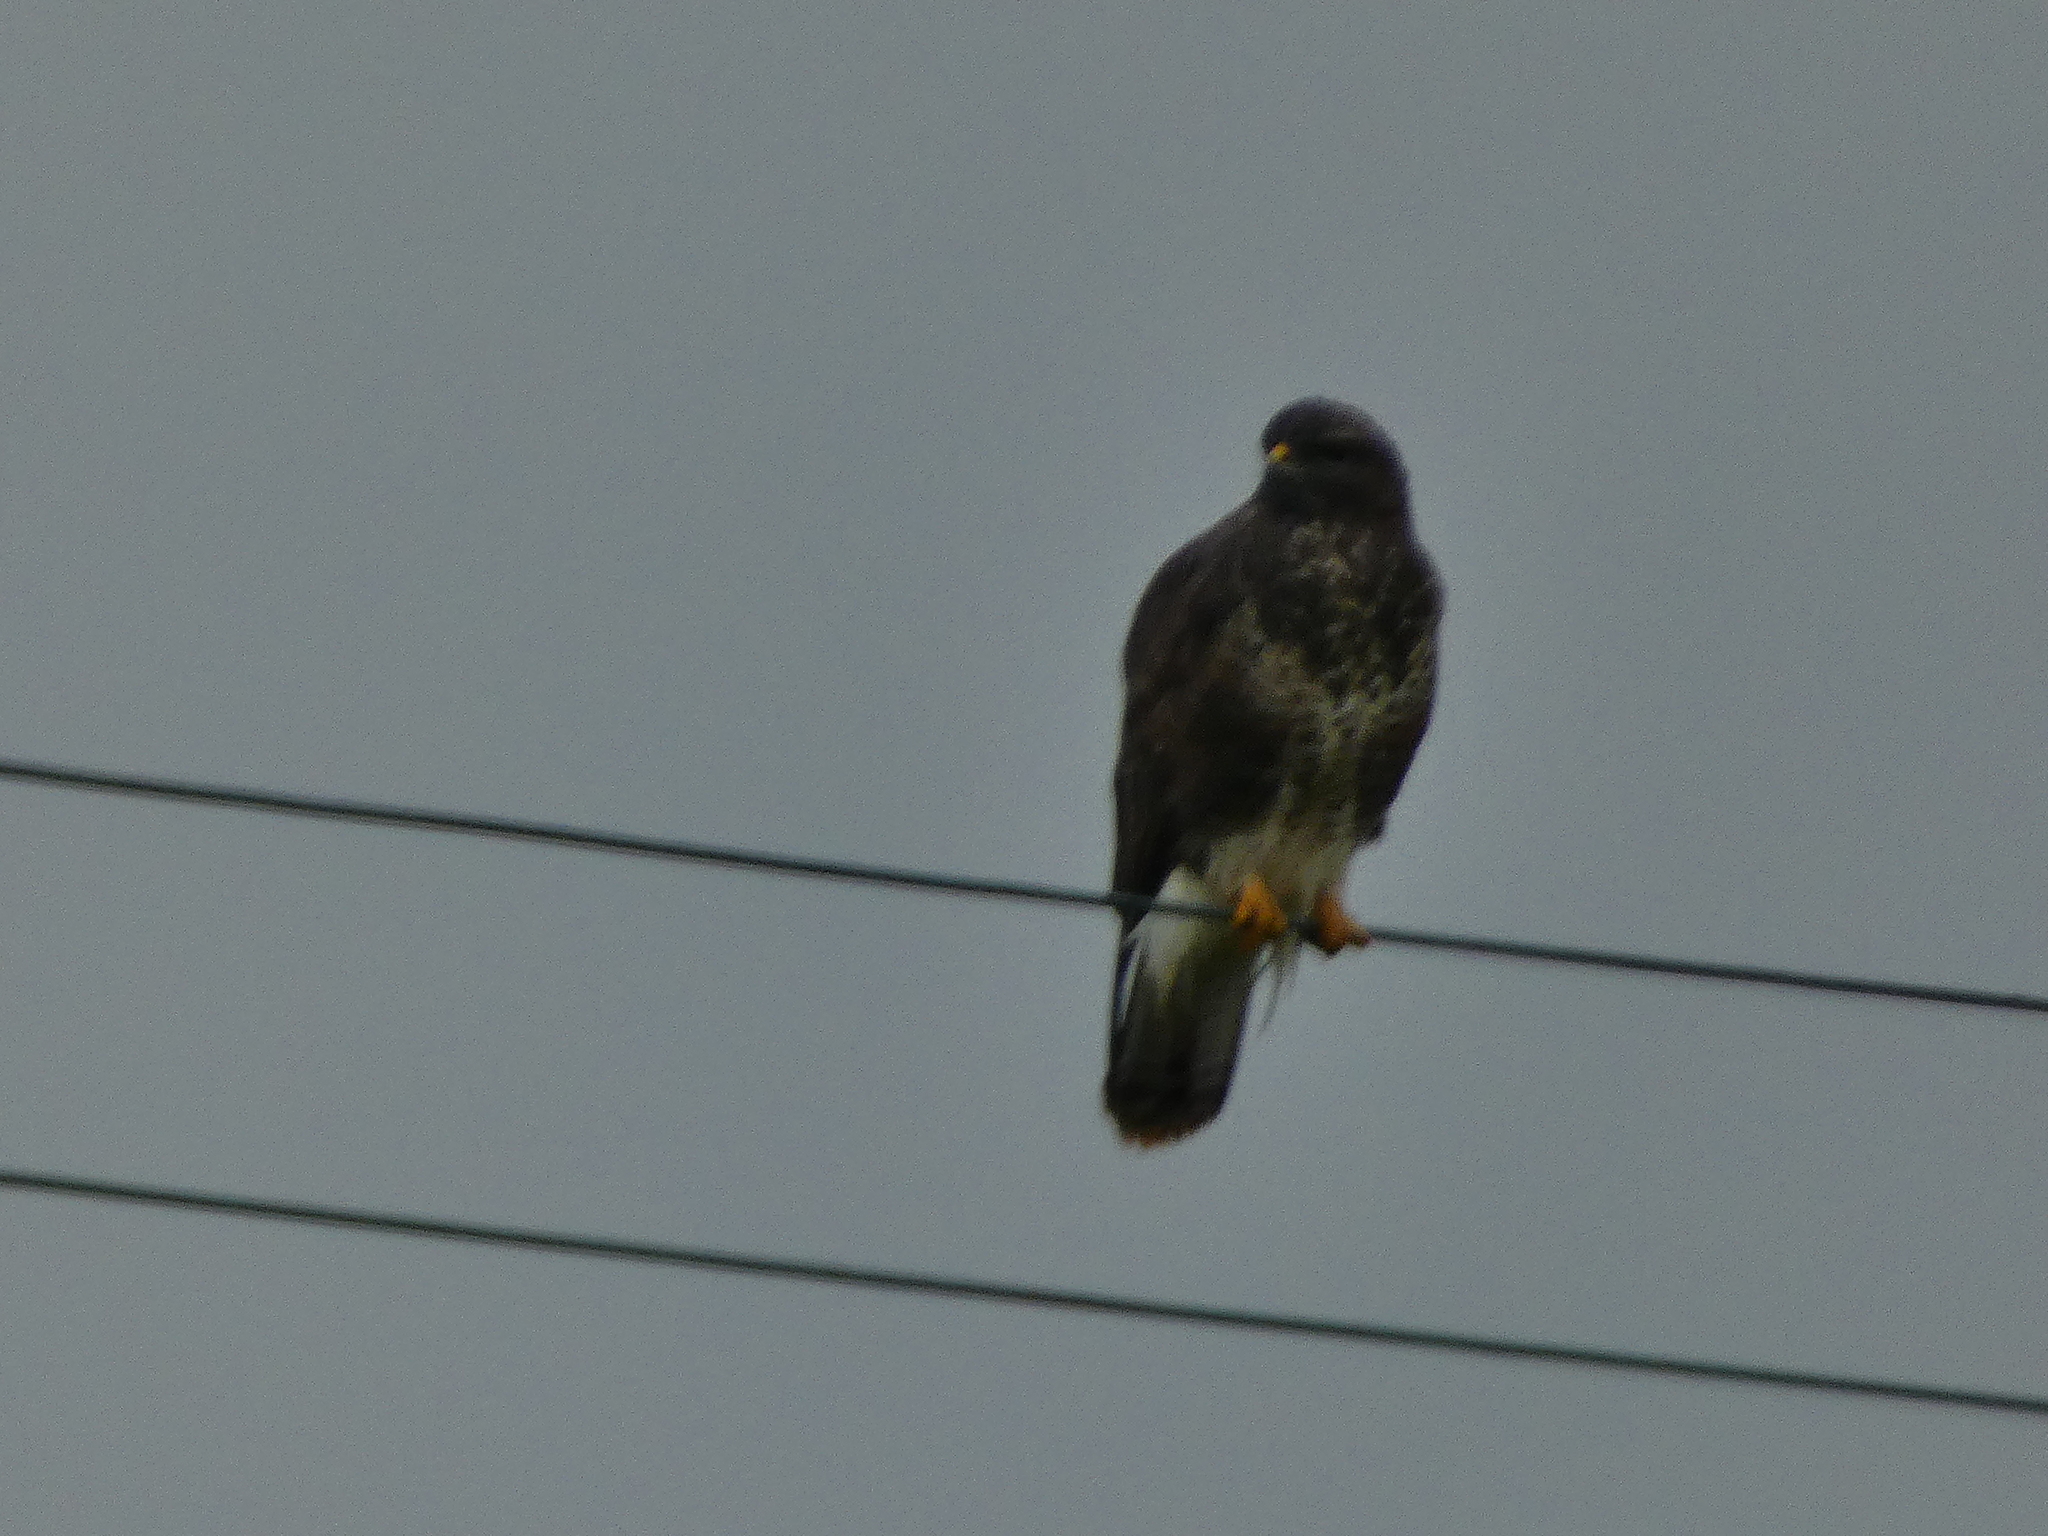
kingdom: Animalia
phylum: Chordata
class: Aves
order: Accipitriformes
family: Accipitridae
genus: Buteo
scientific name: Buteo buteo
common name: Common buzzard
